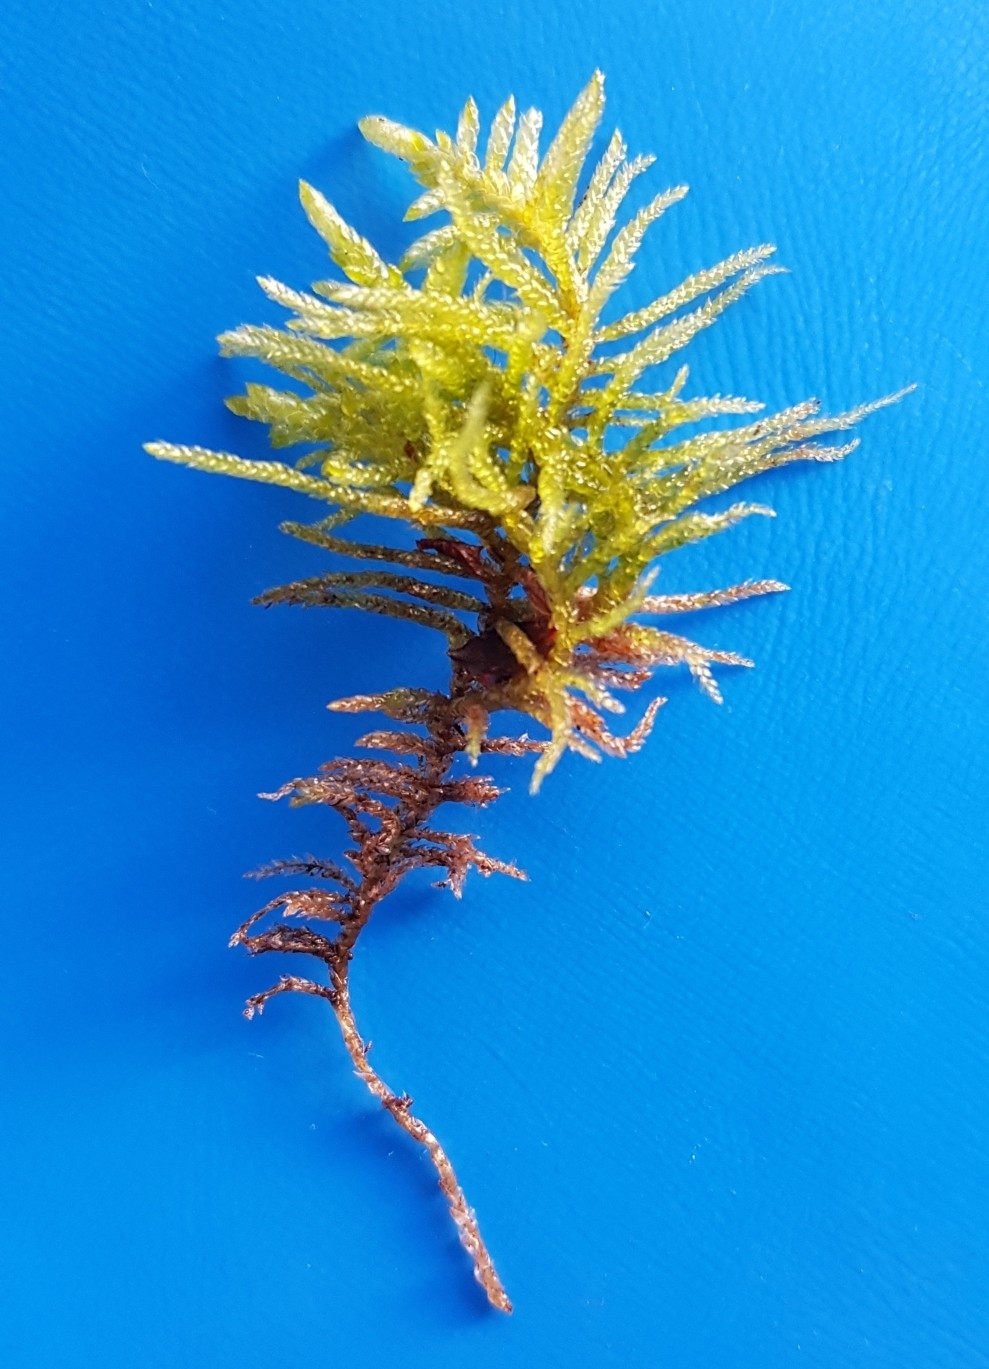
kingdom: Plantae
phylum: Bryophyta
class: Bryopsida
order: Hypnales
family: Brachytheciaceae
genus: Pseudoscleropodium
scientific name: Pseudoscleropodium purum
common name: Neat feather-moss
